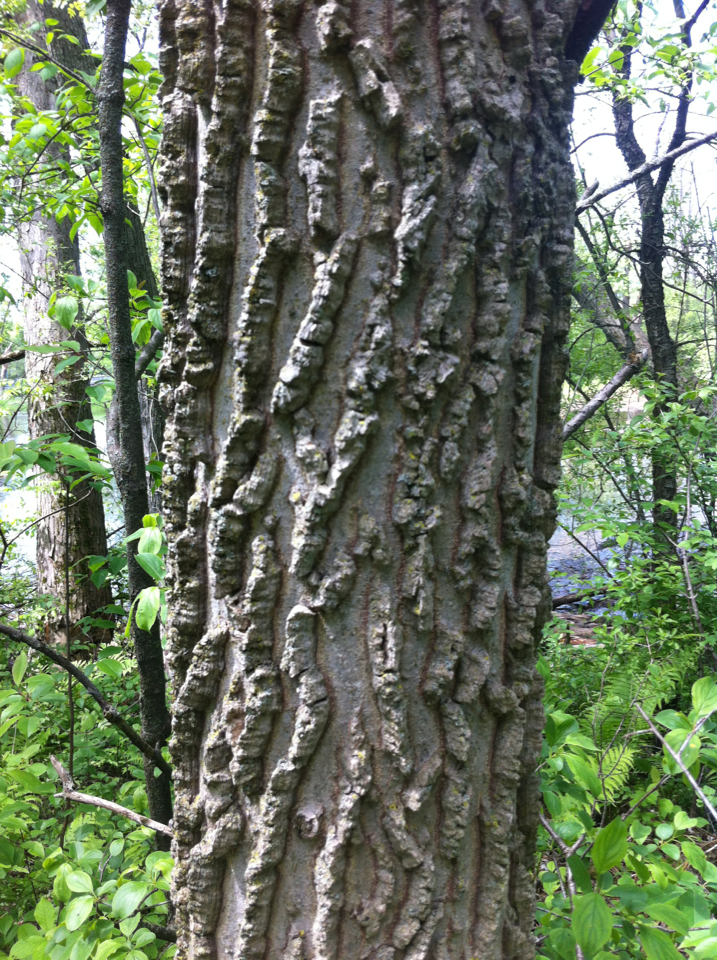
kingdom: Plantae
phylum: Tracheophyta
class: Magnoliopsida
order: Rosales
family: Cannabaceae
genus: Celtis
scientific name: Celtis occidentalis
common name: Common hackberry
